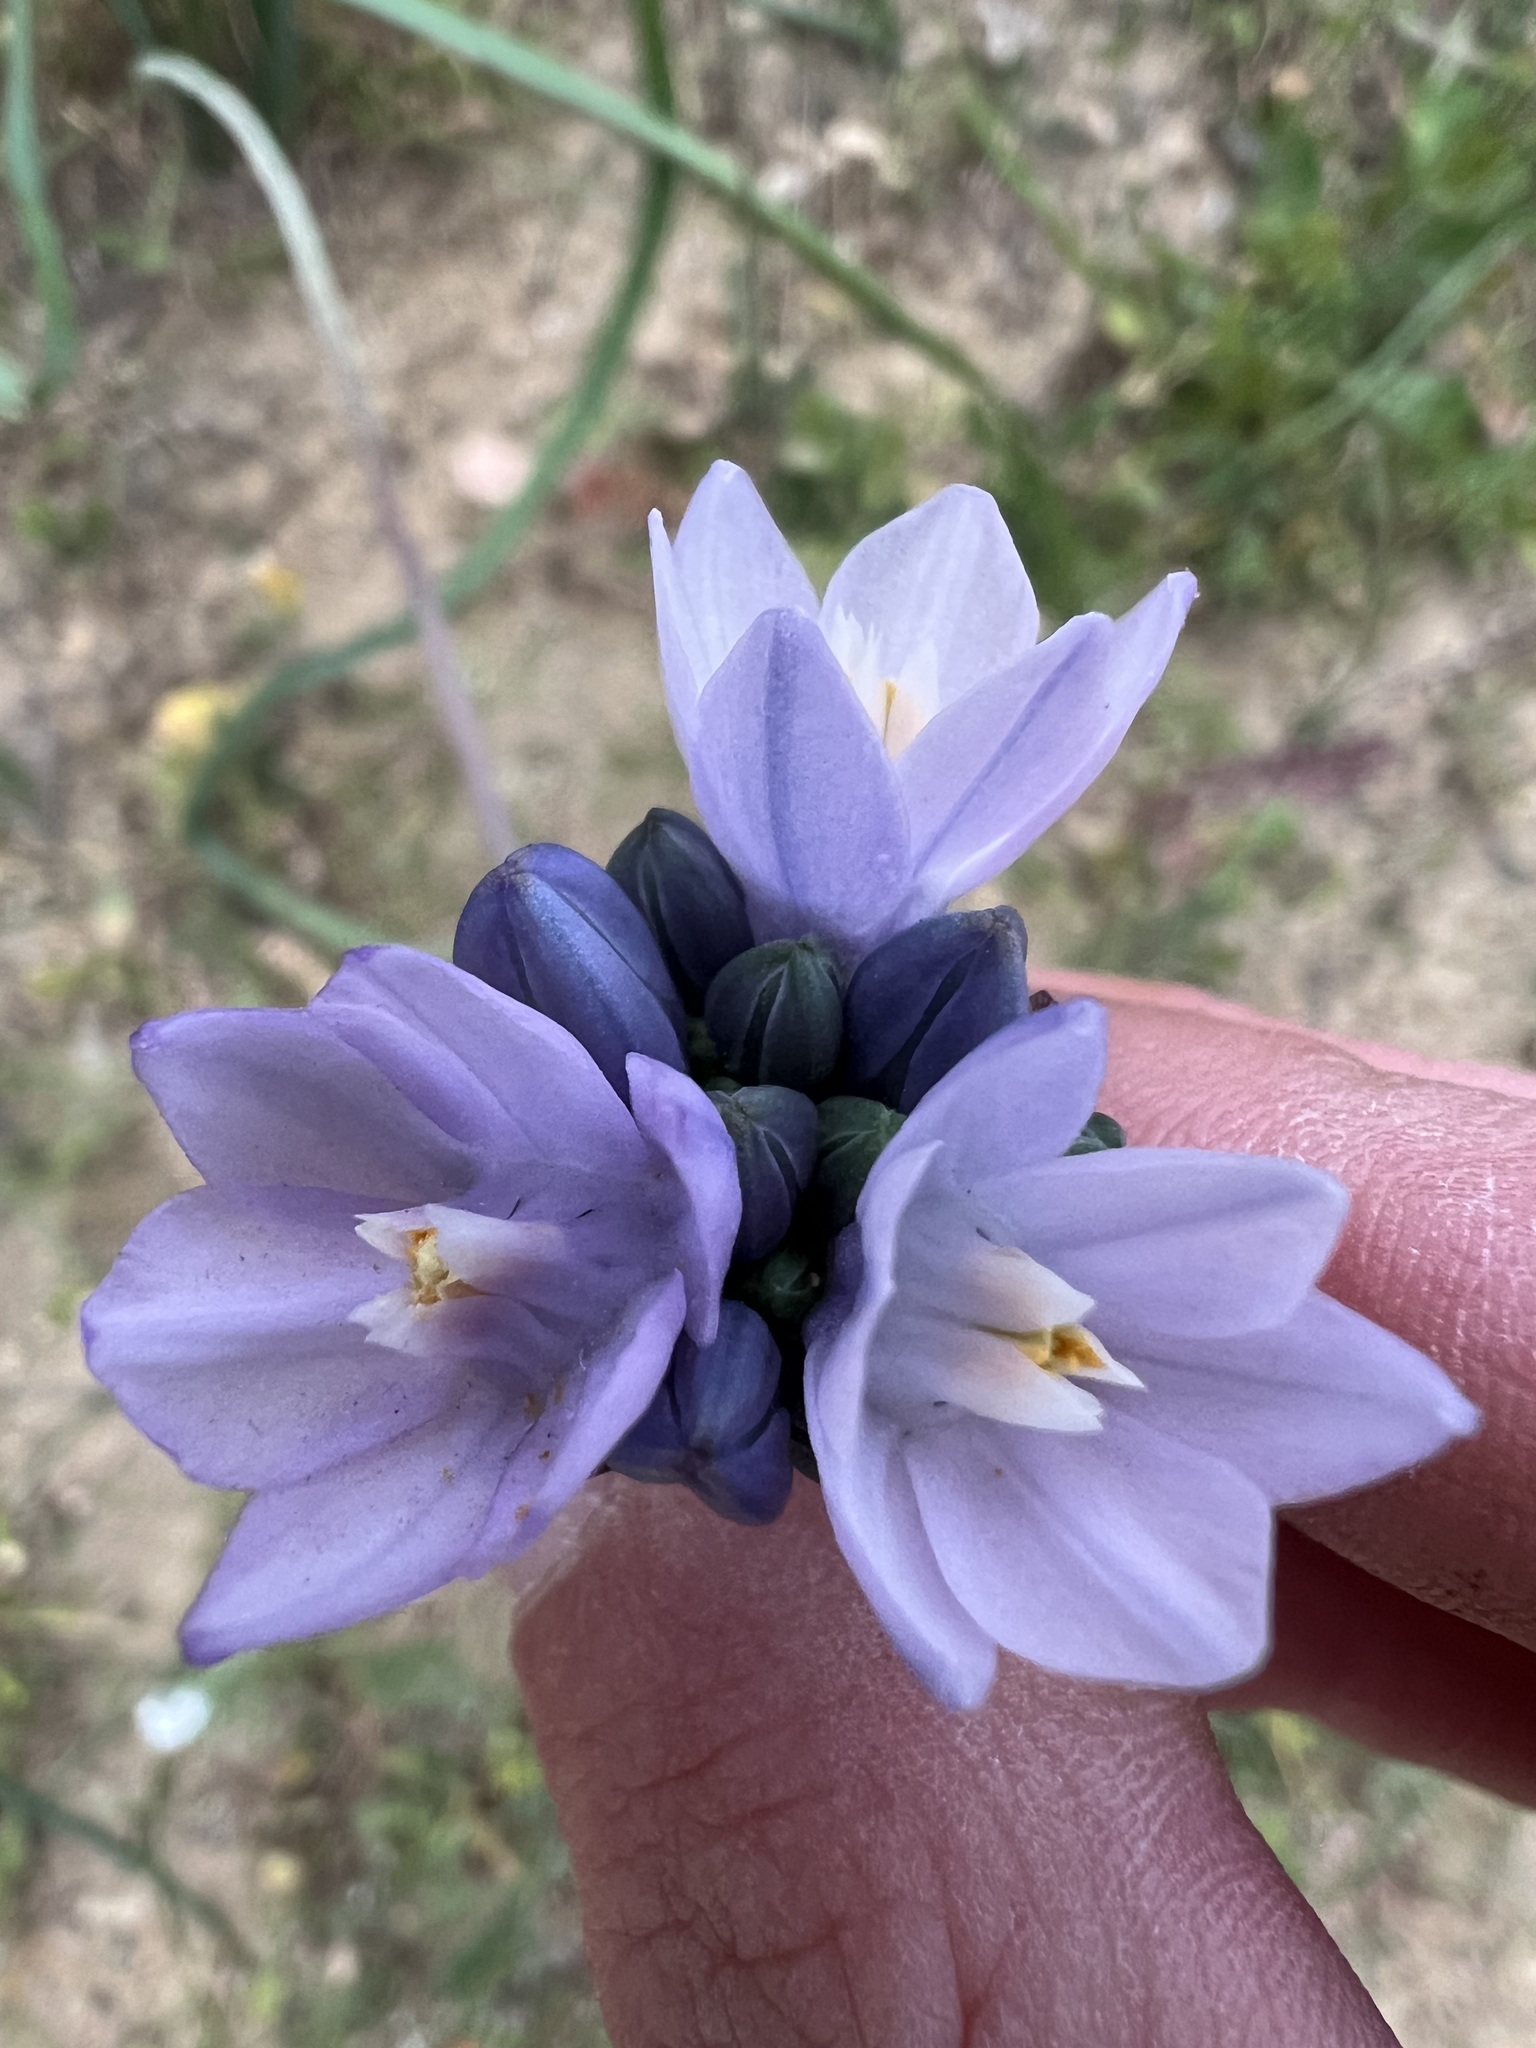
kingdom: Plantae
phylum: Tracheophyta
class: Liliopsida
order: Asparagales
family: Asparagaceae
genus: Dipterostemon
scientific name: Dipterostemon capitatus
